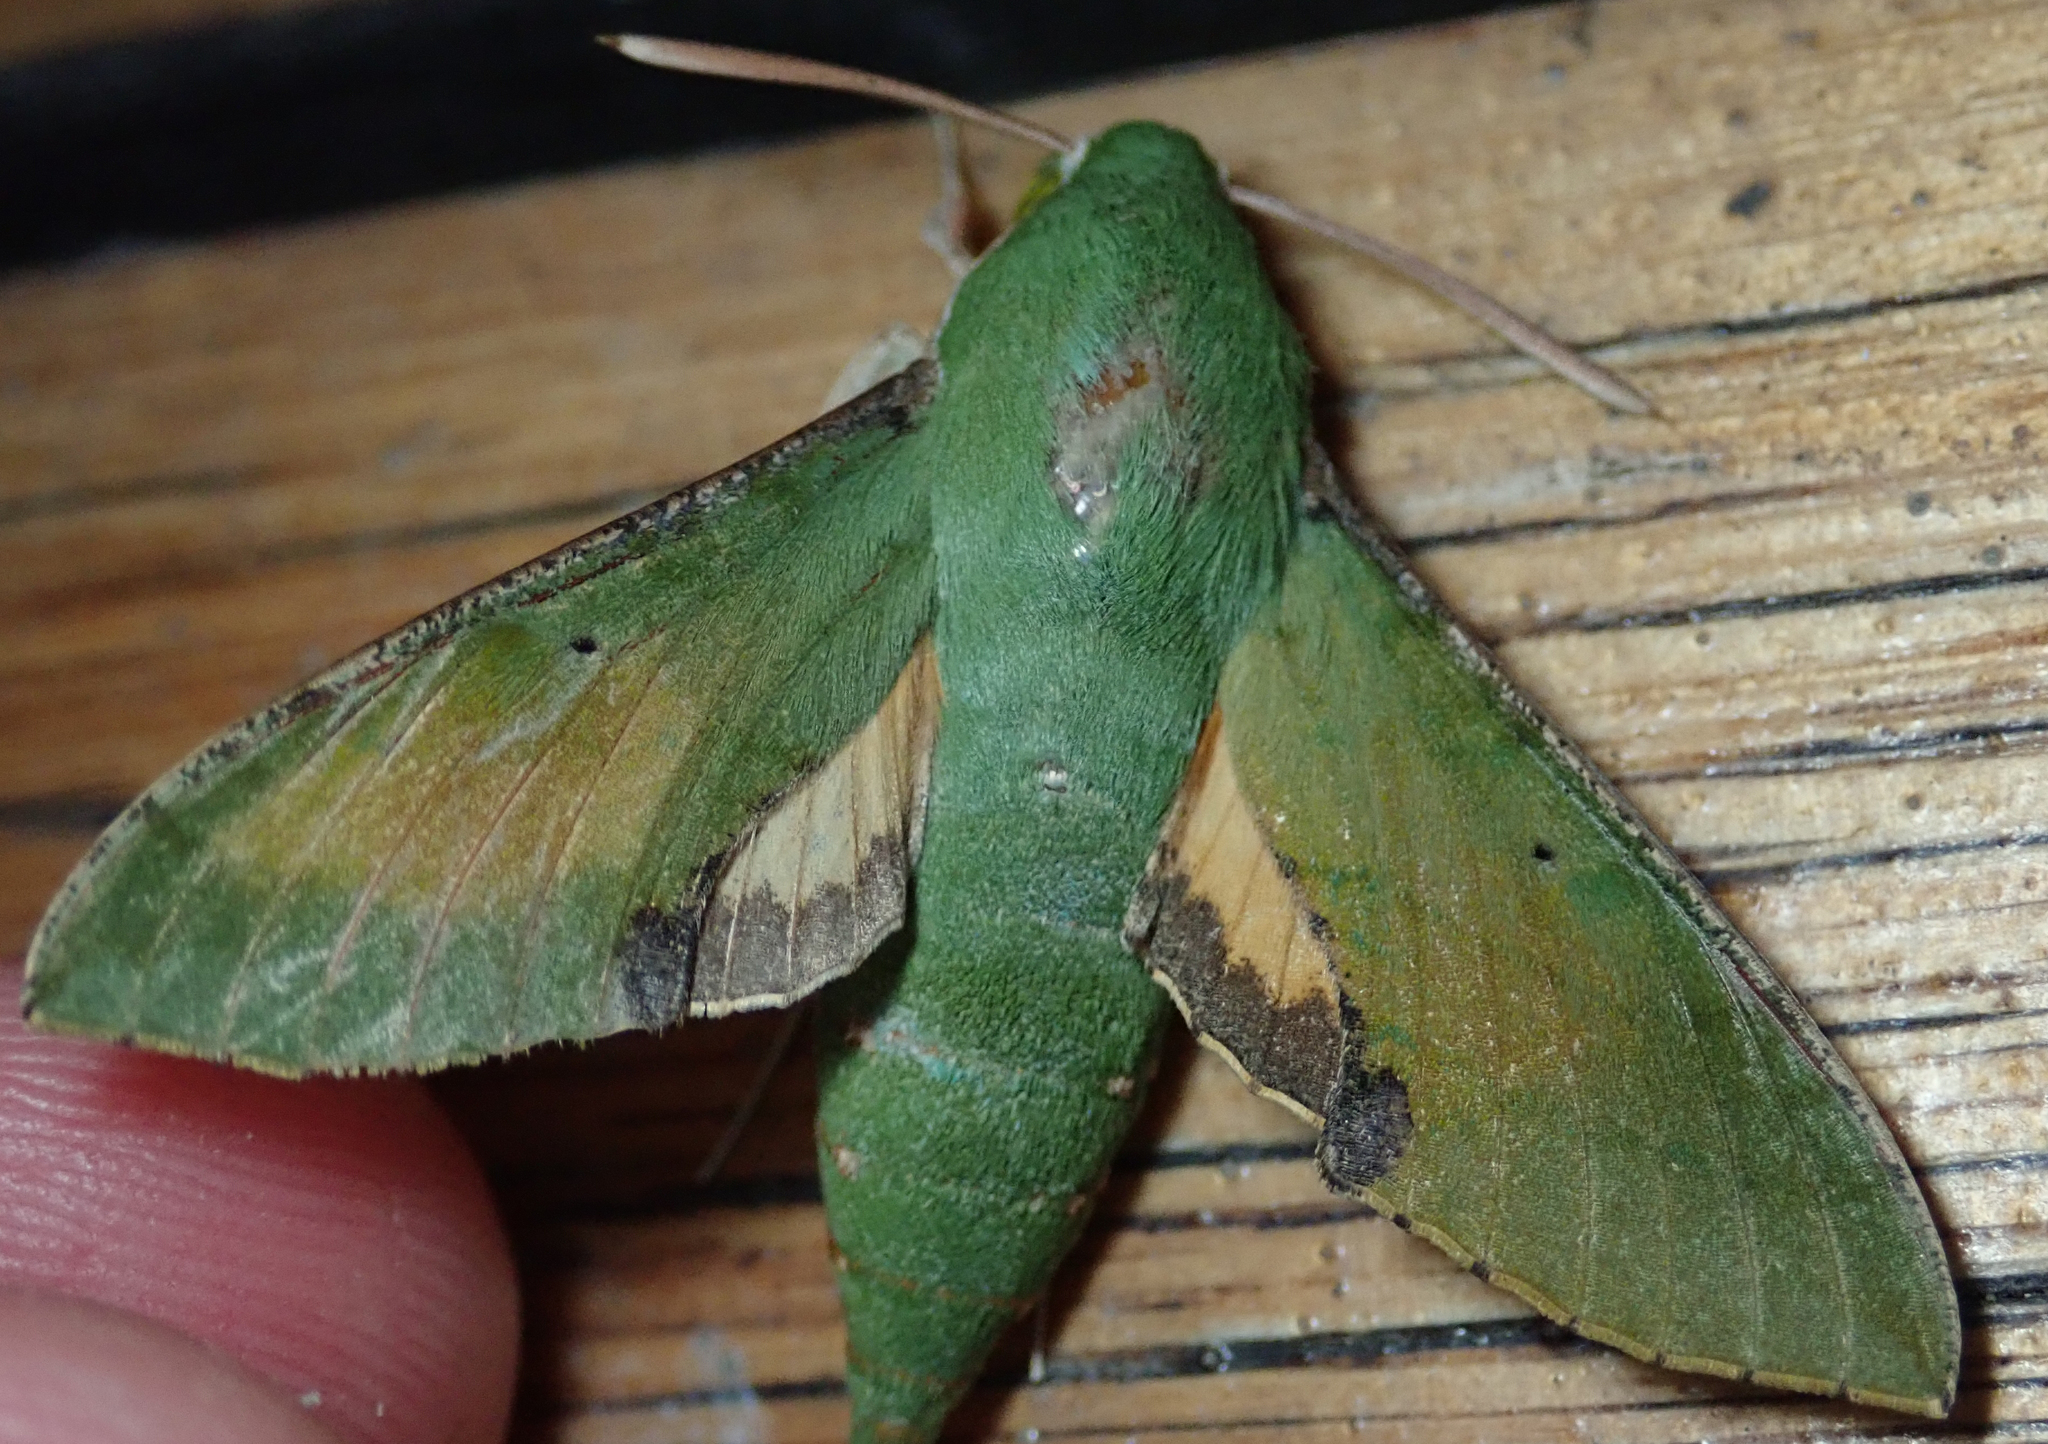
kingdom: Animalia
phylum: Arthropoda
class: Insecta
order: Lepidoptera
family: Sphingidae
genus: Basiothia
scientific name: Basiothia medea
